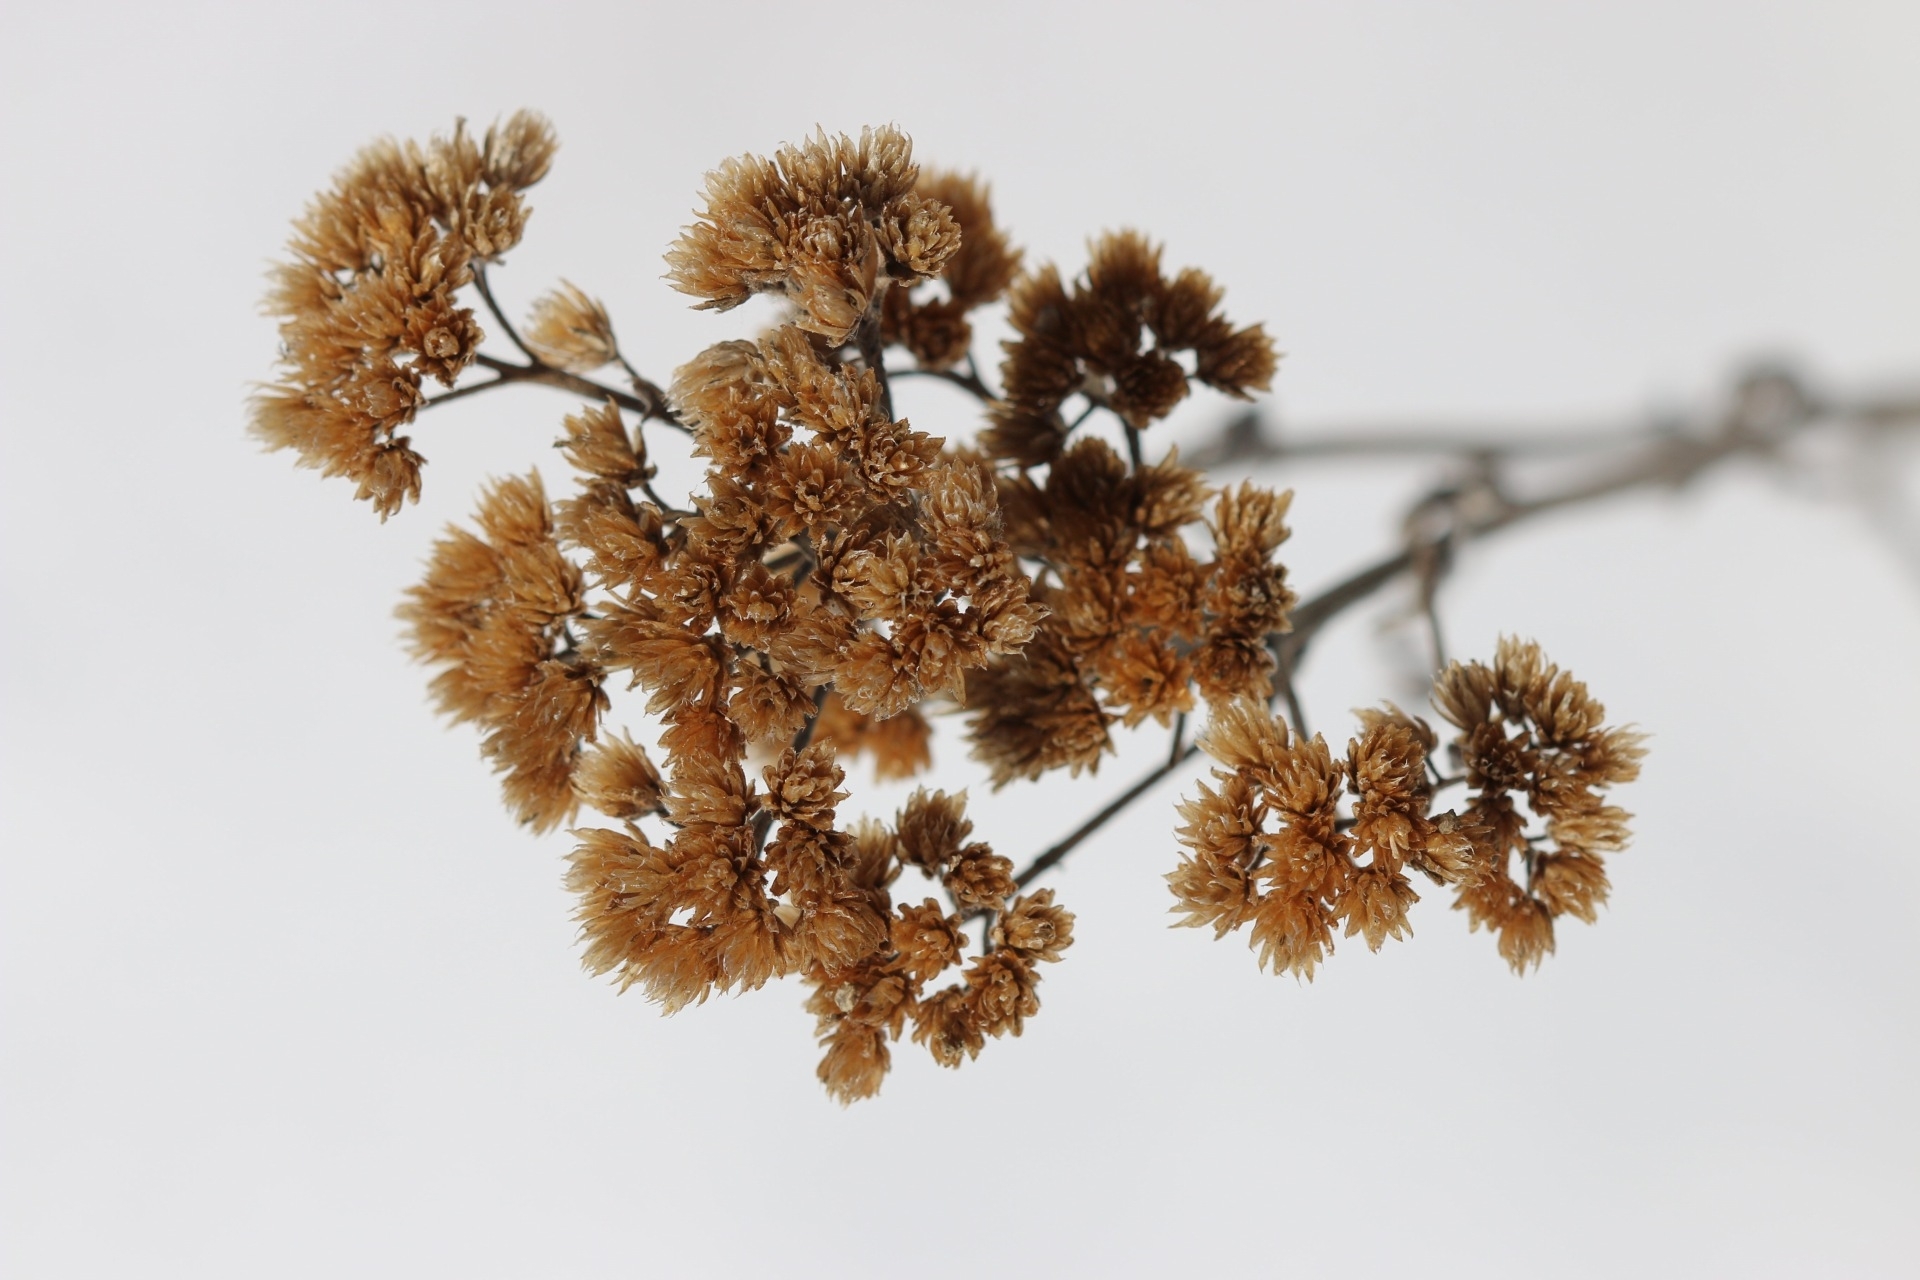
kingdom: Plantae
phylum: Tracheophyta
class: Magnoliopsida
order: Asterales
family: Asteraceae
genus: Achillea
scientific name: Achillea millefolium
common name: Yarrow
